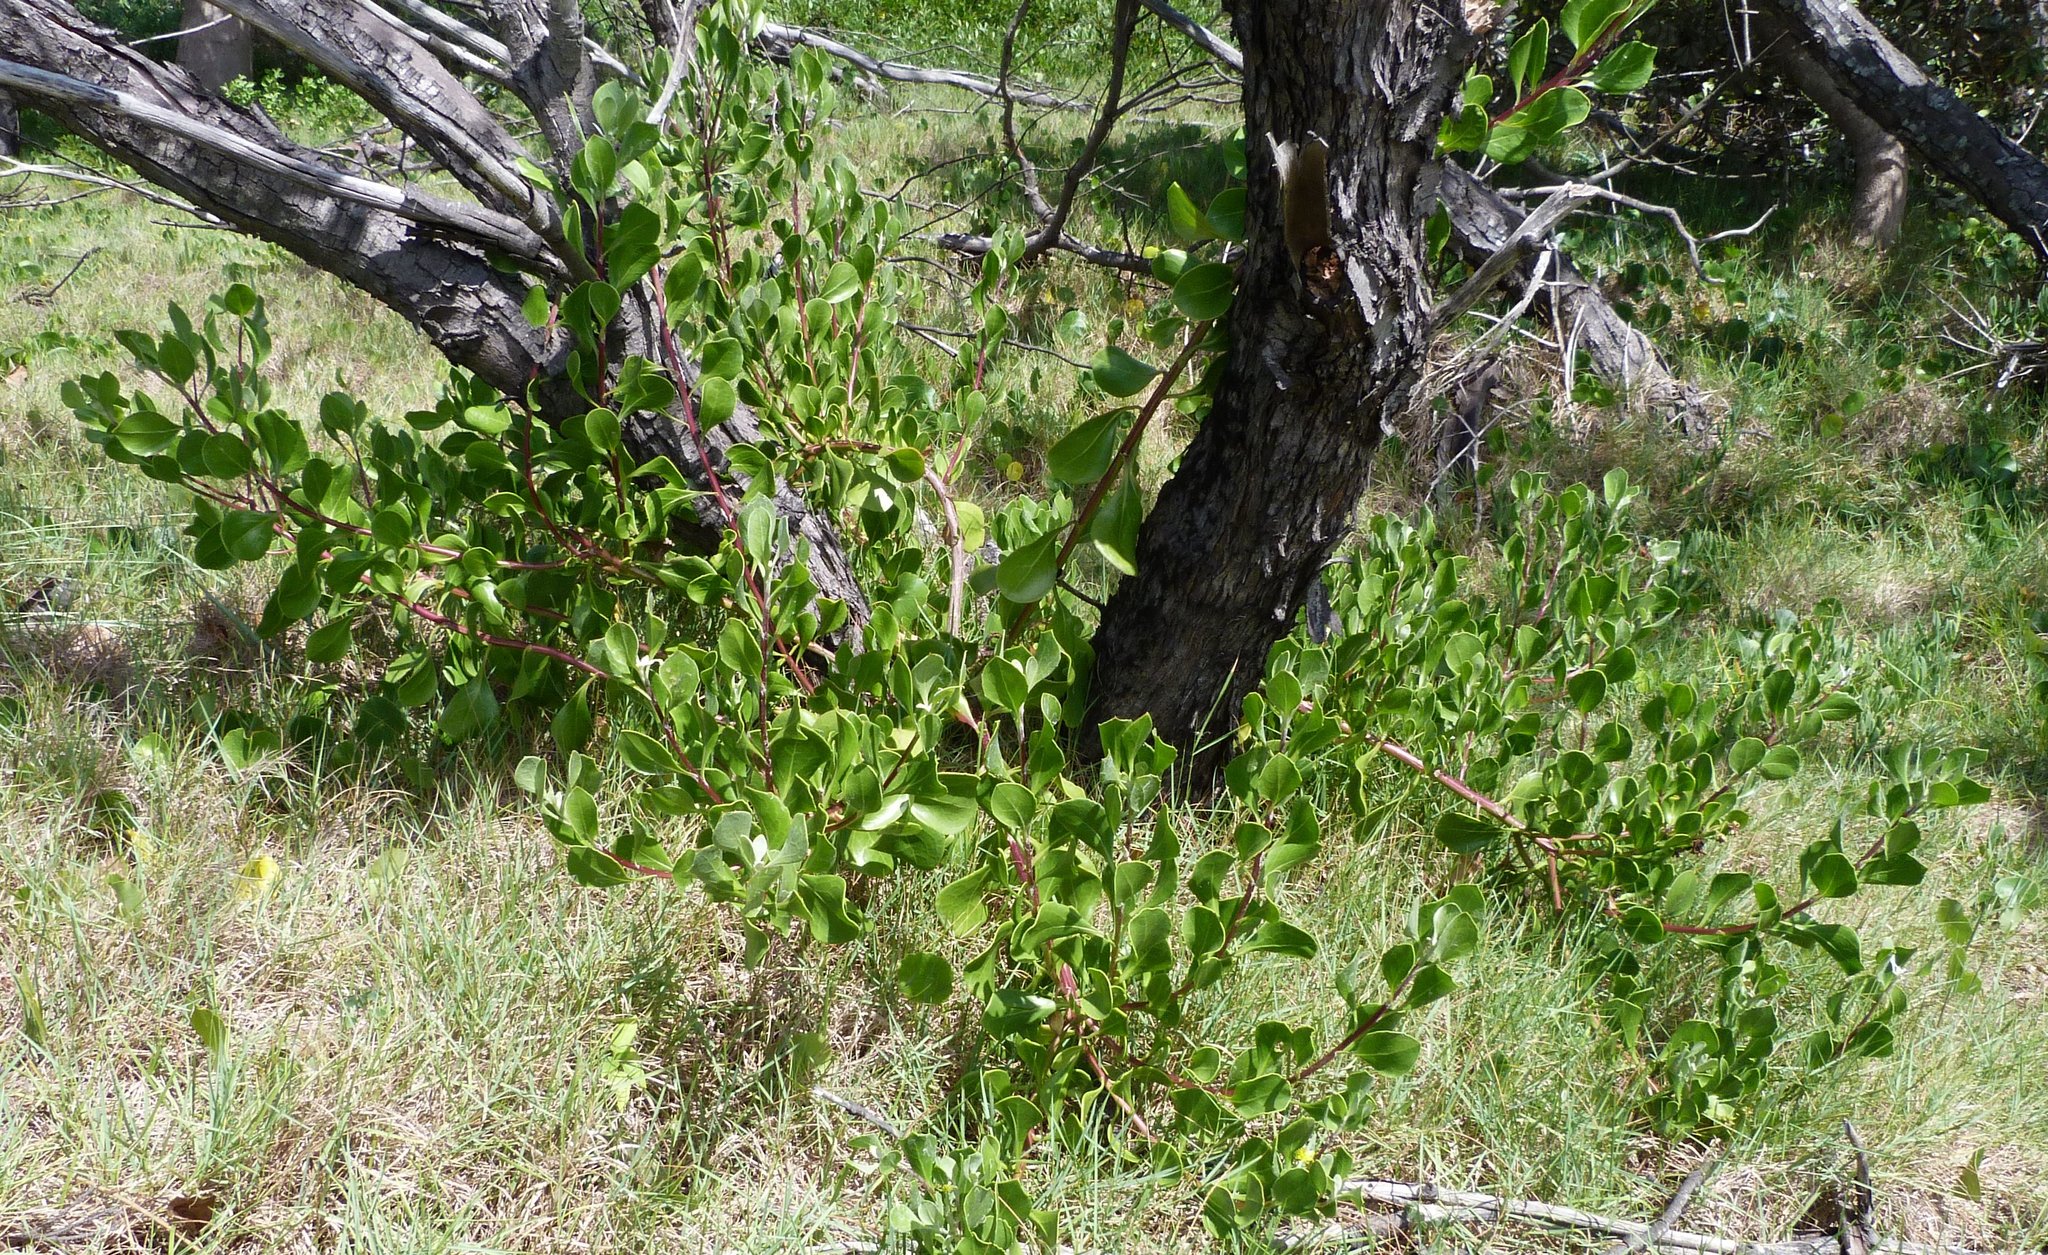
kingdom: Plantae
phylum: Tracheophyta
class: Magnoliopsida
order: Asterales
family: Asteraceae
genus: Osteospermum
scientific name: Osteospermum moniliferum
